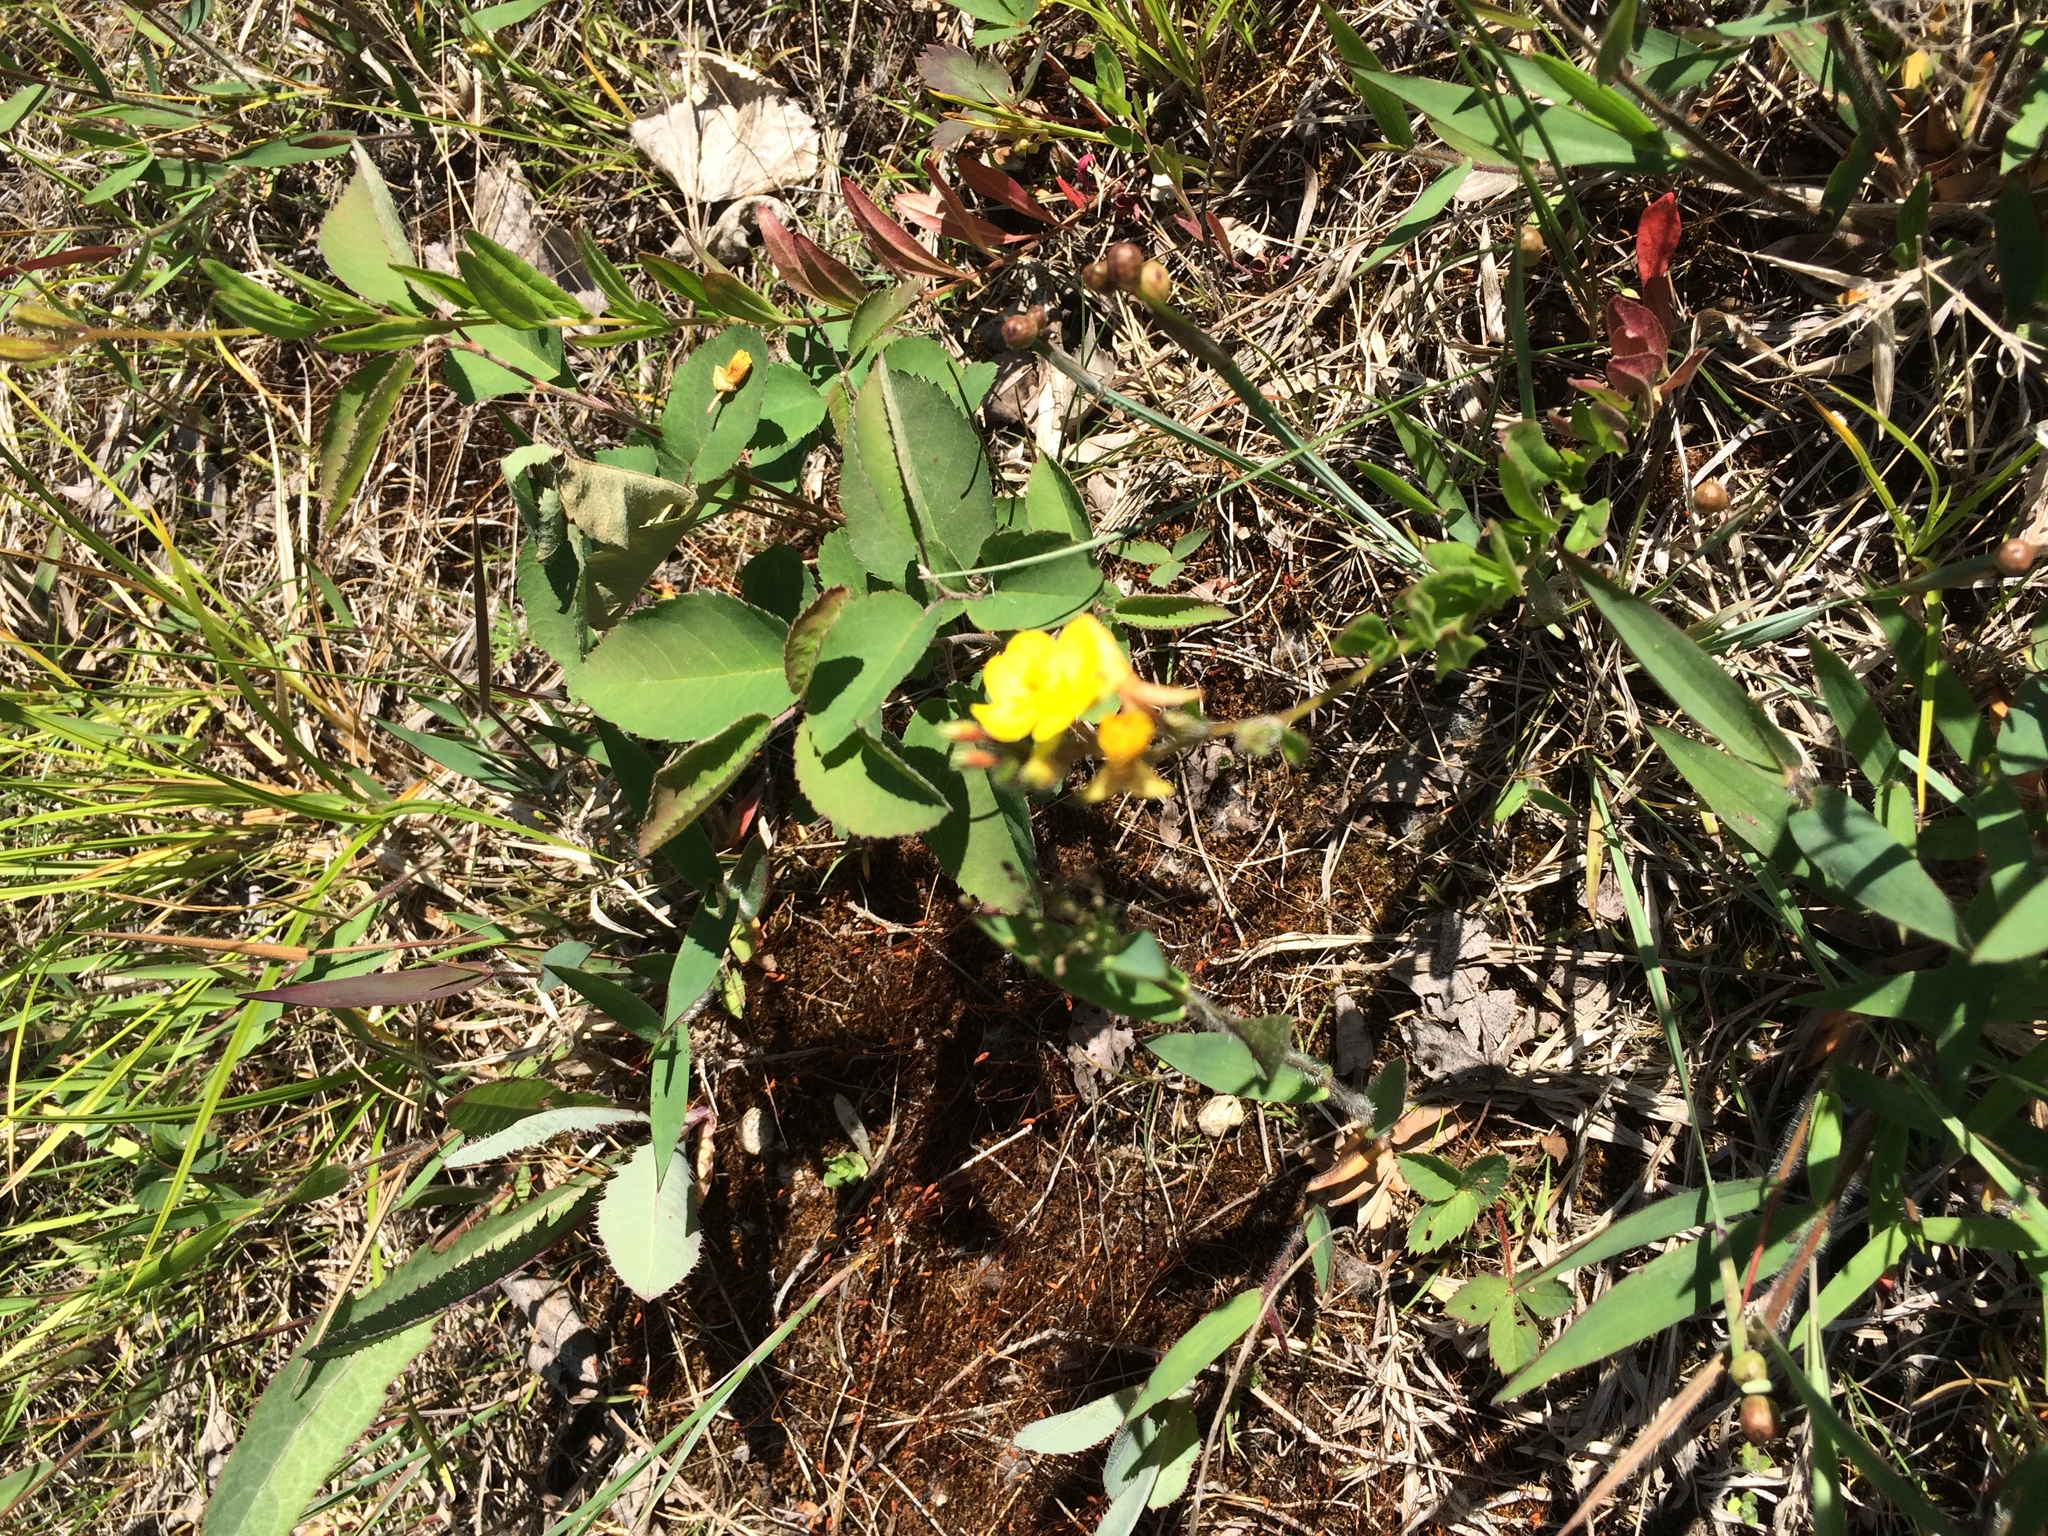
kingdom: Plantae
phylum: Tracheophyta
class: Magnoliopsida
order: Myrtales
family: Onagraceae
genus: Oenothera
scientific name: Oenothera perennis
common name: Small sundrops
